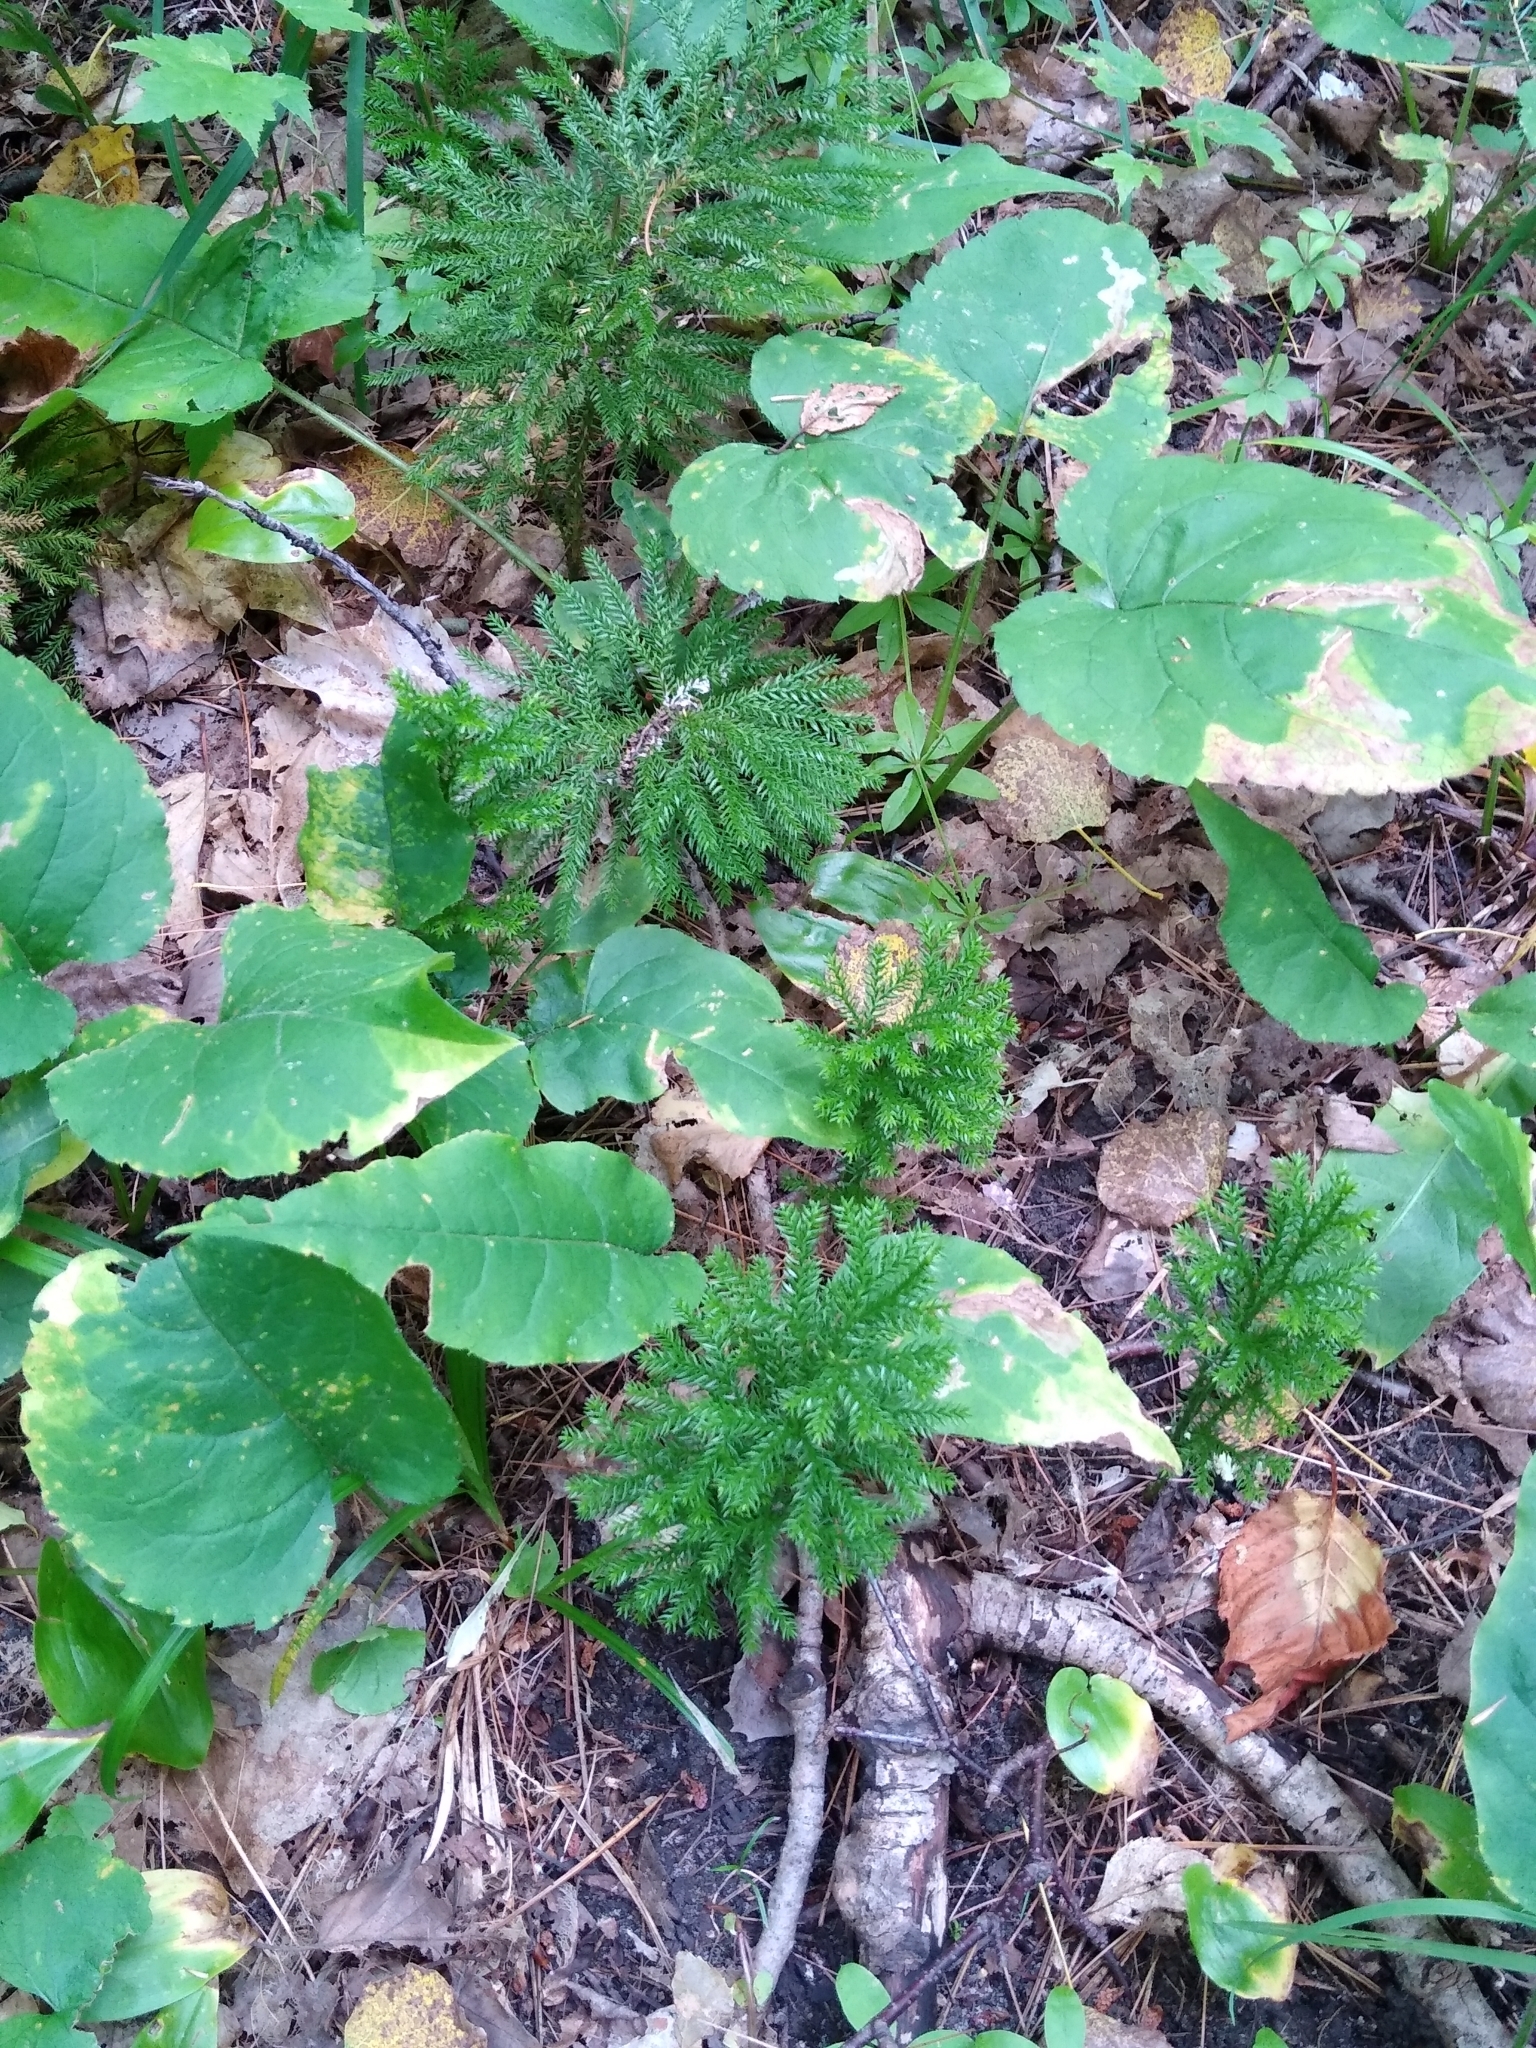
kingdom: Plantae
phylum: Tracheophyta
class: Lycopodiopsida
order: Lycopodiales
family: Lycopodiaceae
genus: Dendrolycopodium
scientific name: Dendrolycopodium dendroideum
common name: Northern tree-clubmoss
